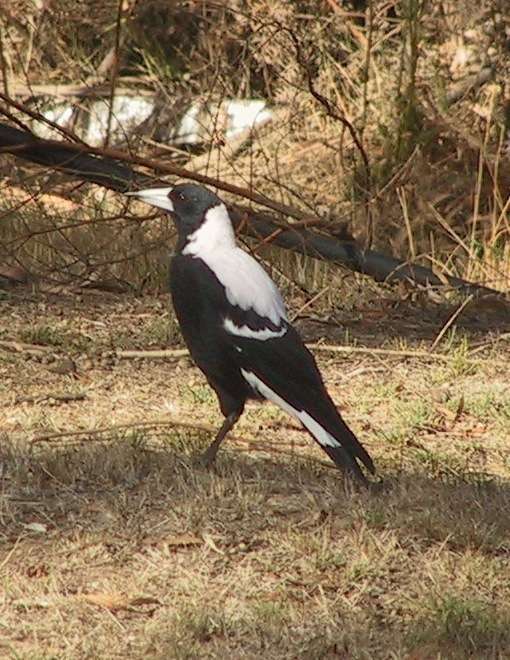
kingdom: Animalia
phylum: Chordata
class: Aves
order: Passeriformes
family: Cracticidae
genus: Gymnorhina
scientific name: Gymnorhina tibicen
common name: Australian magpie
